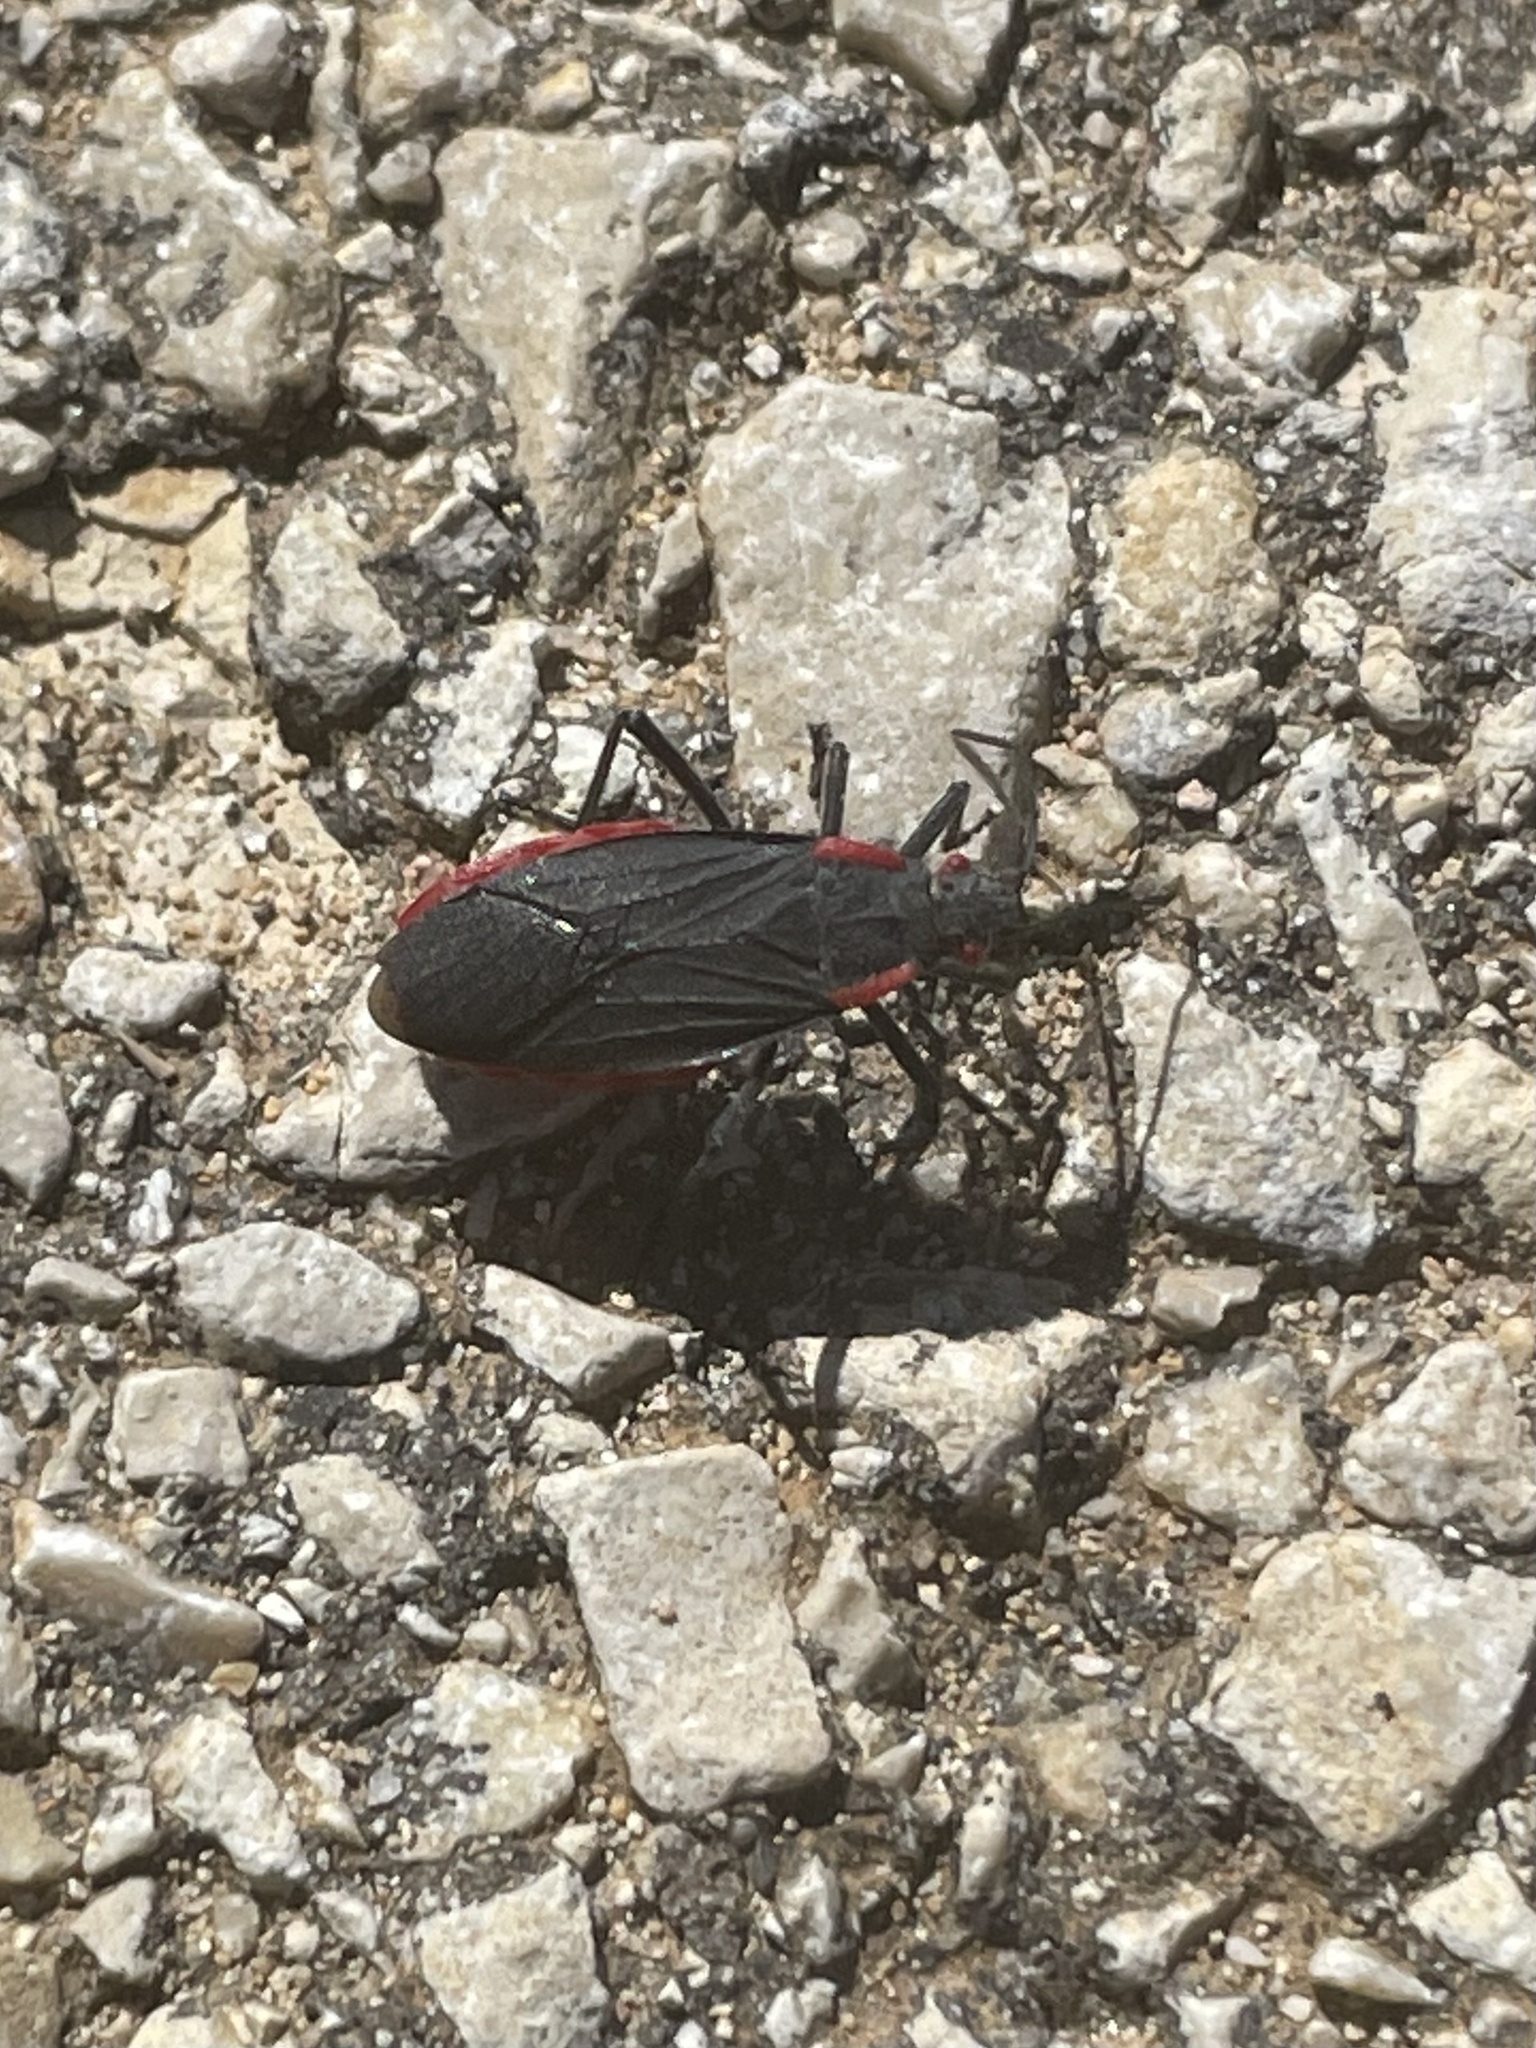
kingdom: Animalia
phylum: Arthropoda
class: Insecta
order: Hemiptera
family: Rhopalidae
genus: Jadera
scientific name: Jadera haematoloma
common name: Red-shouldered bug
